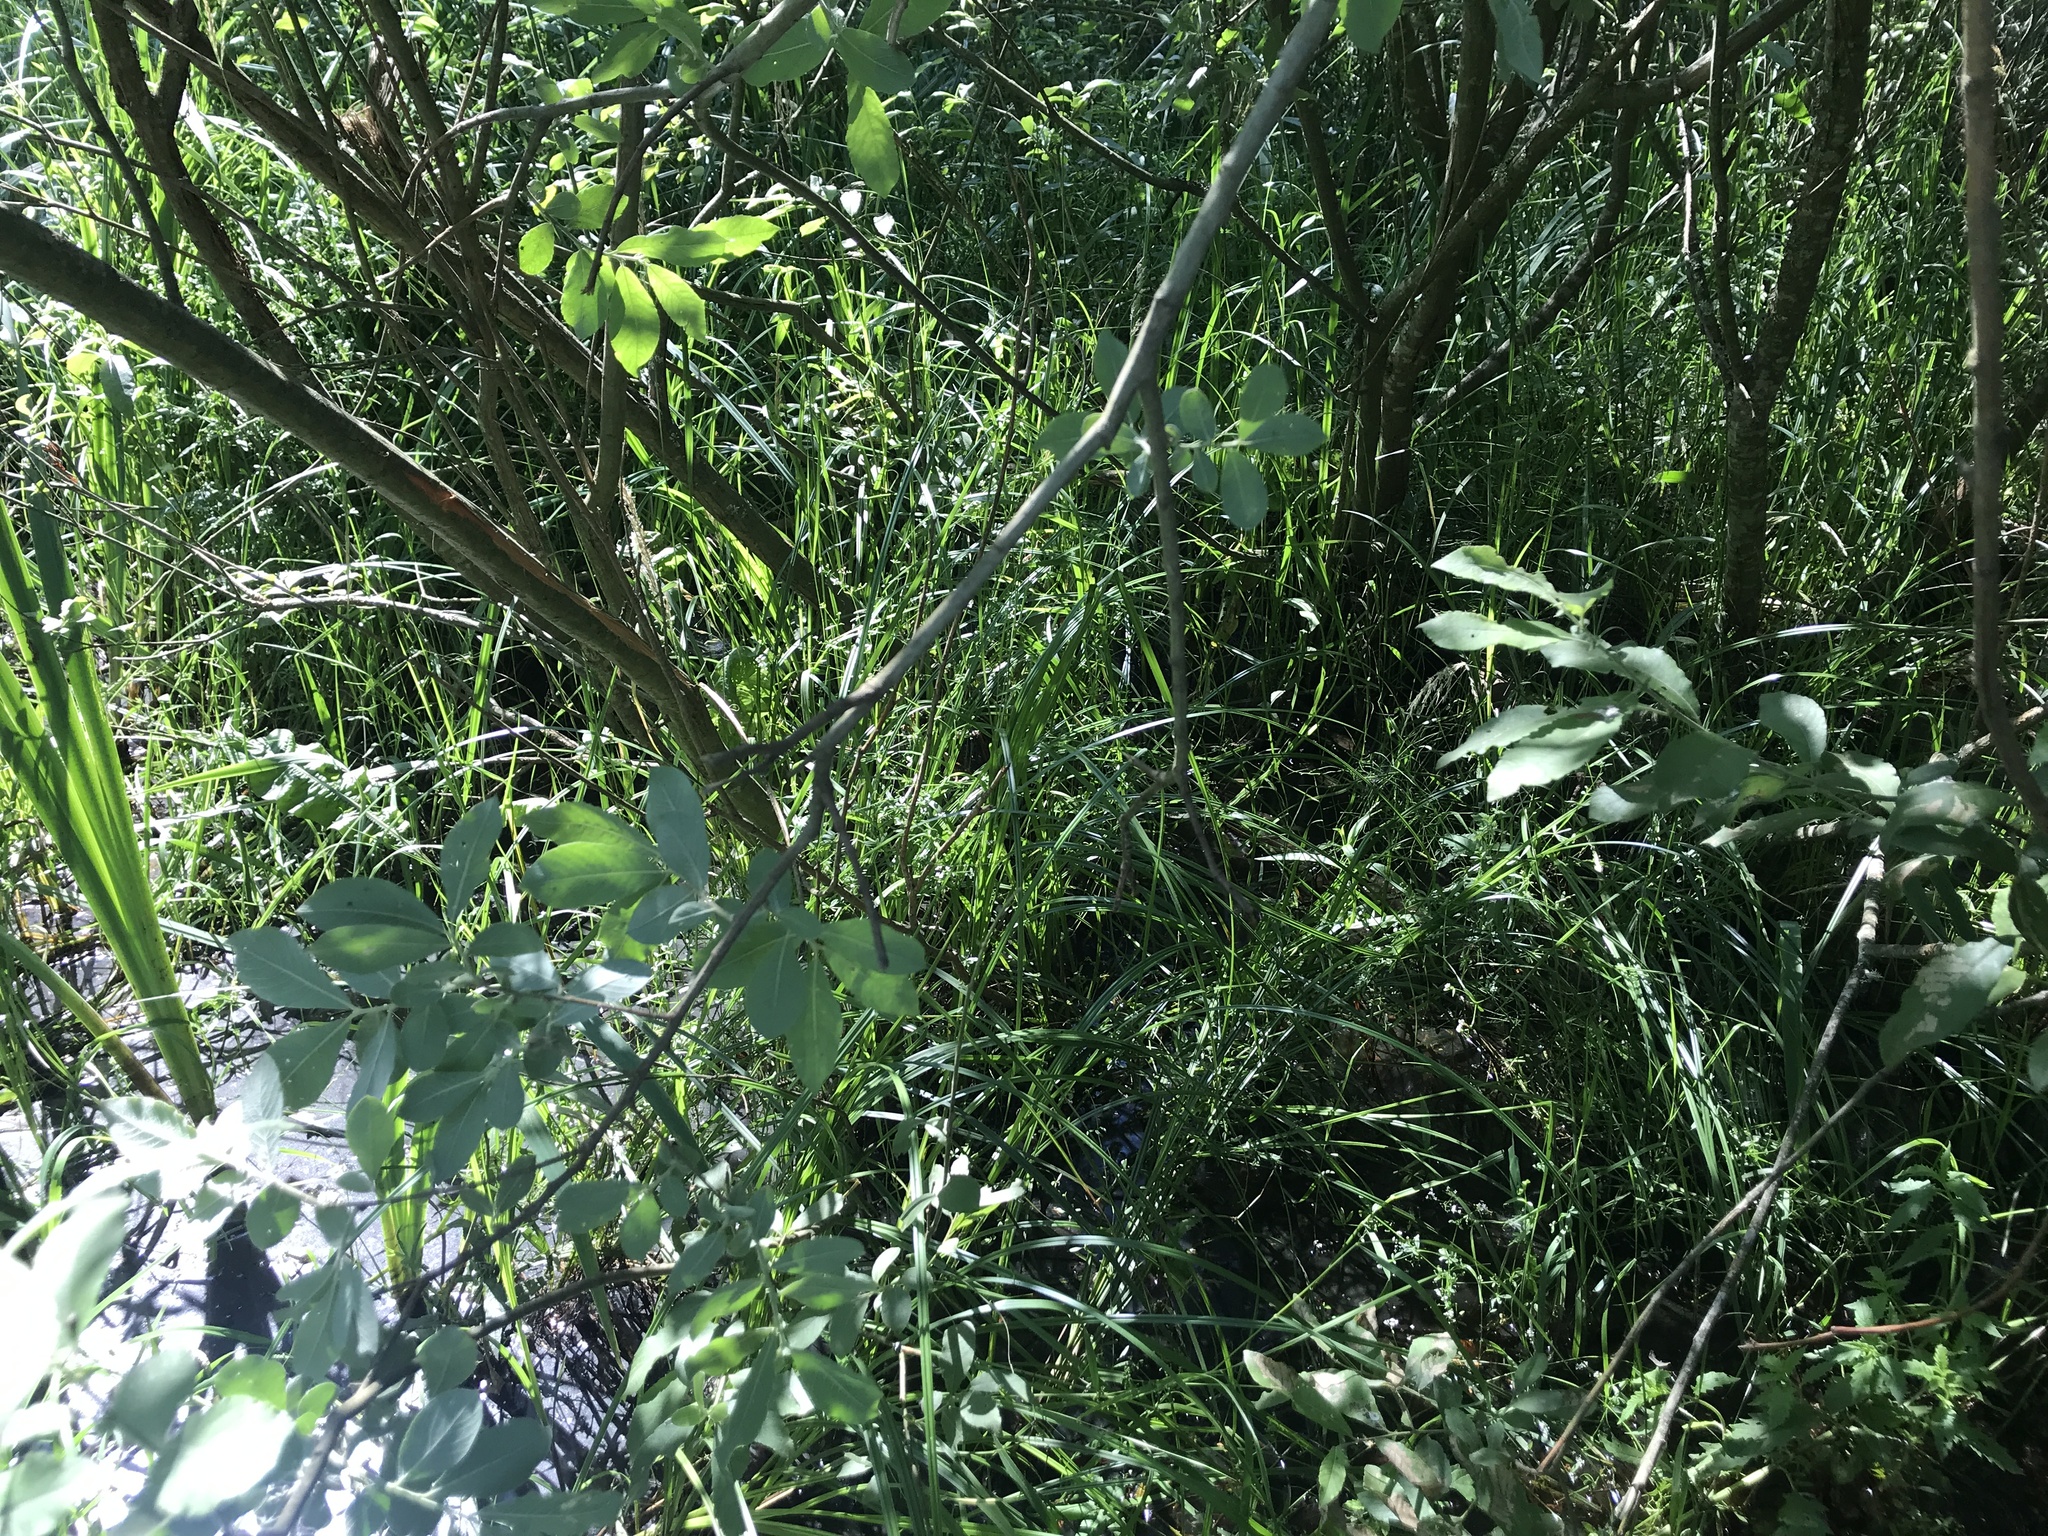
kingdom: Plantae
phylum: Tracheophyta
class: Magnoliopsida
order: Malpighiales
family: Salicaceae
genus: Salix
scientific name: Salix cinerea
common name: Common sallow
